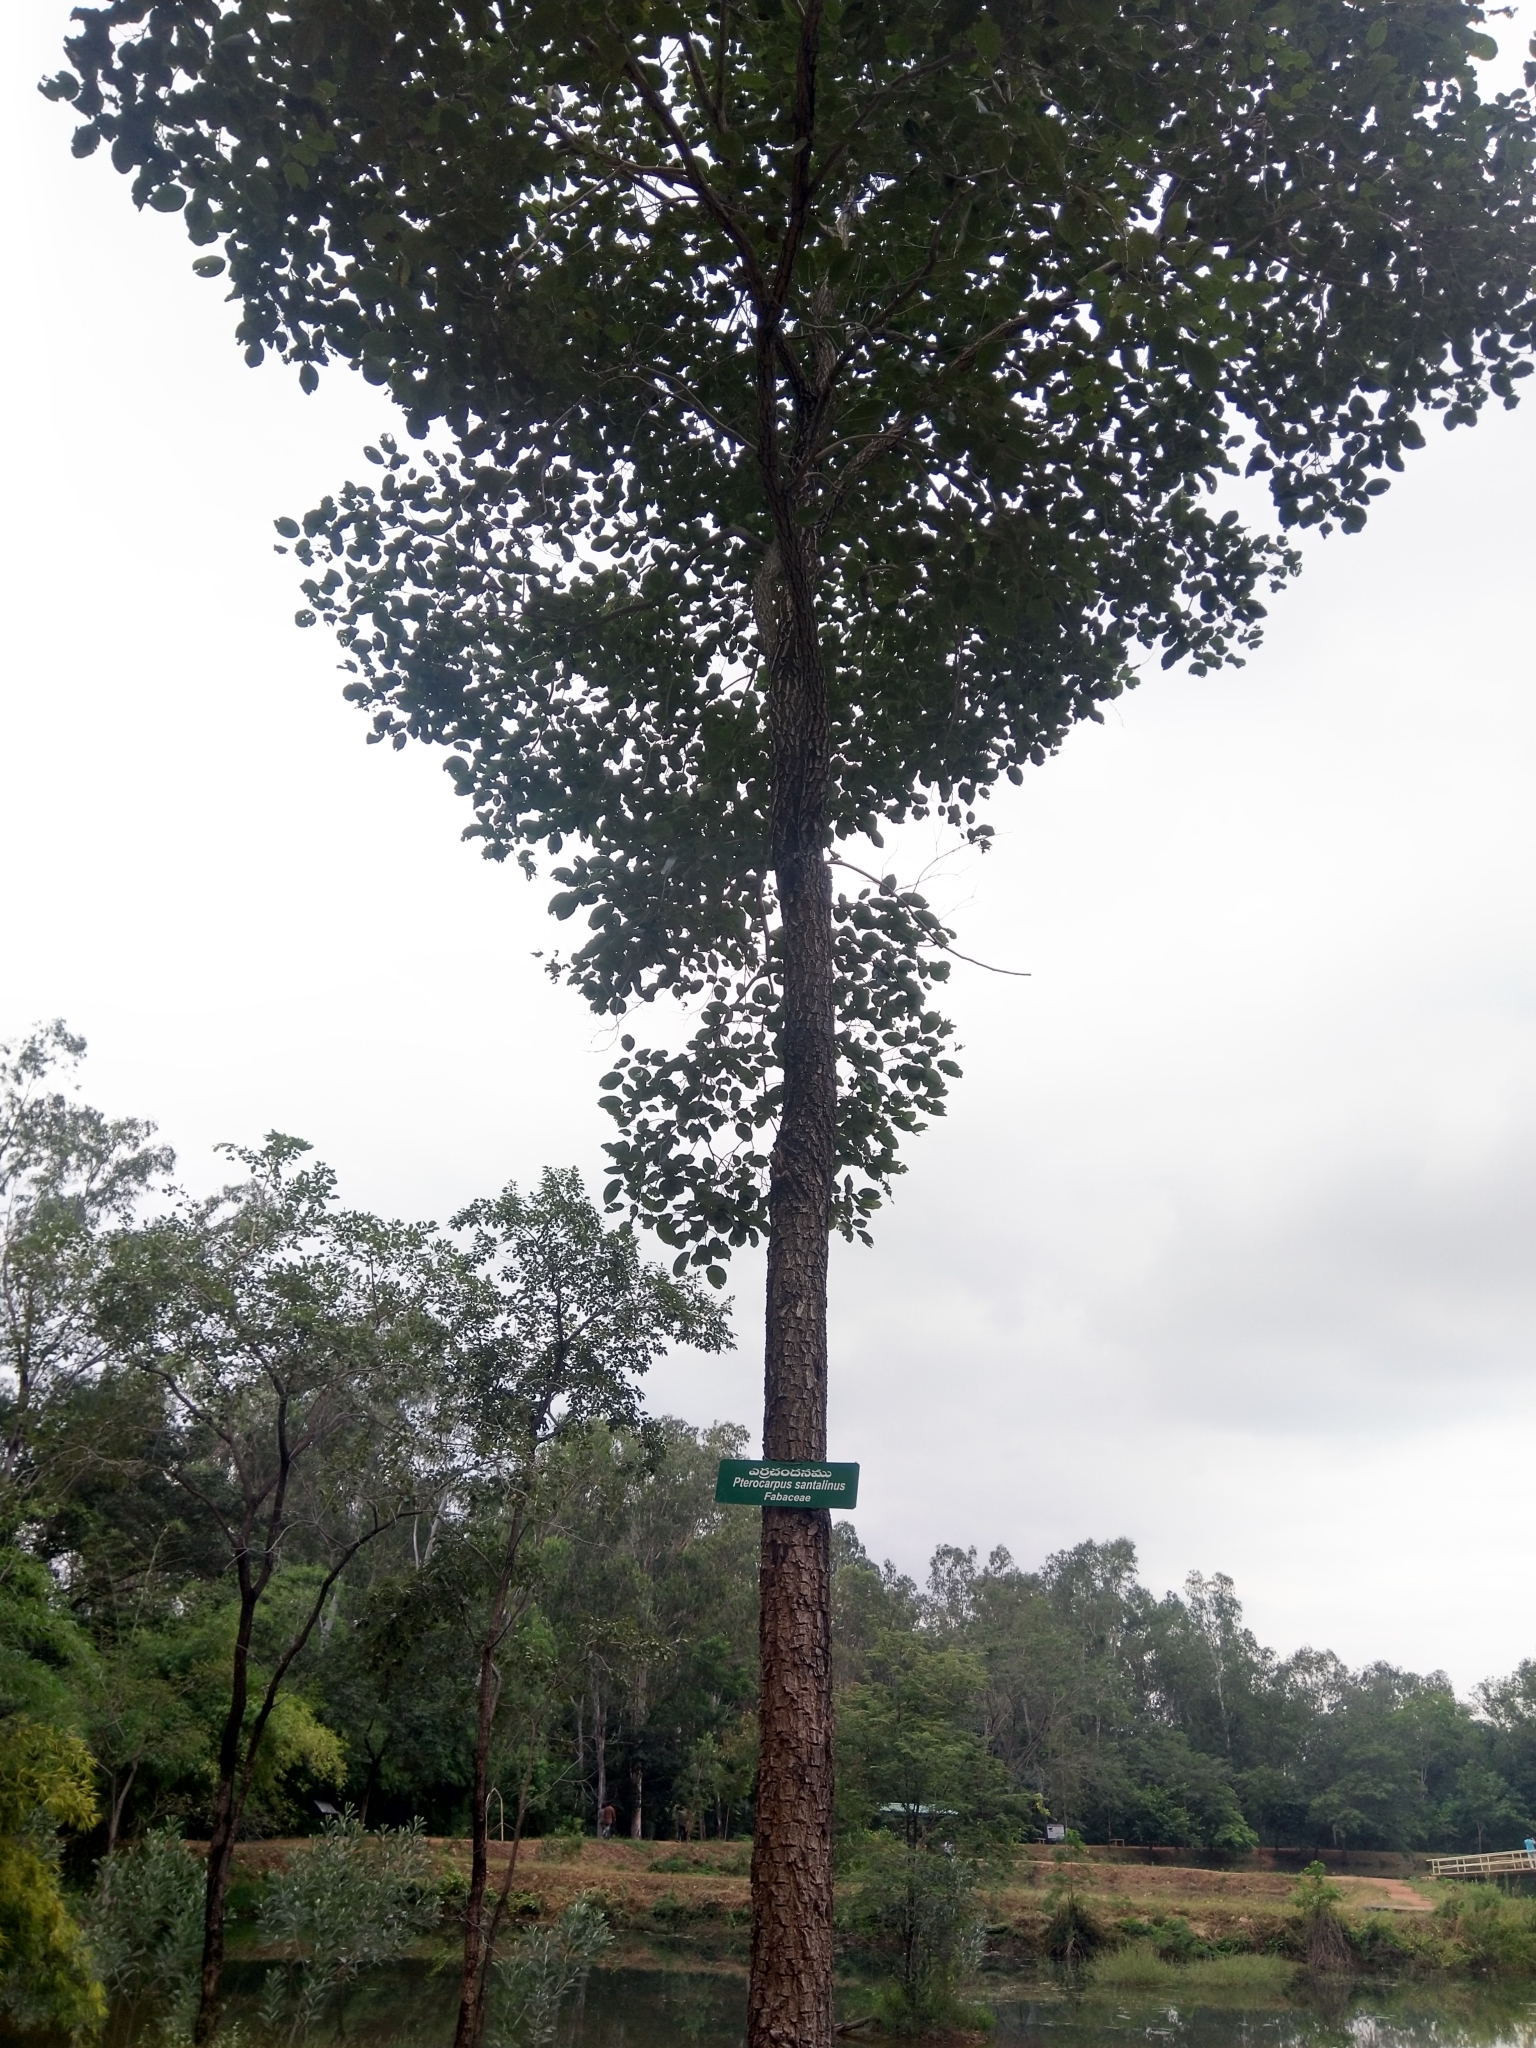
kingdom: Plantae
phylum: Tracheophyta
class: Magnoliopsida
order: Fabales
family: Fabaceae
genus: Pterocarpus
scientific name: Pterocarpus santalinus
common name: Red sanders
